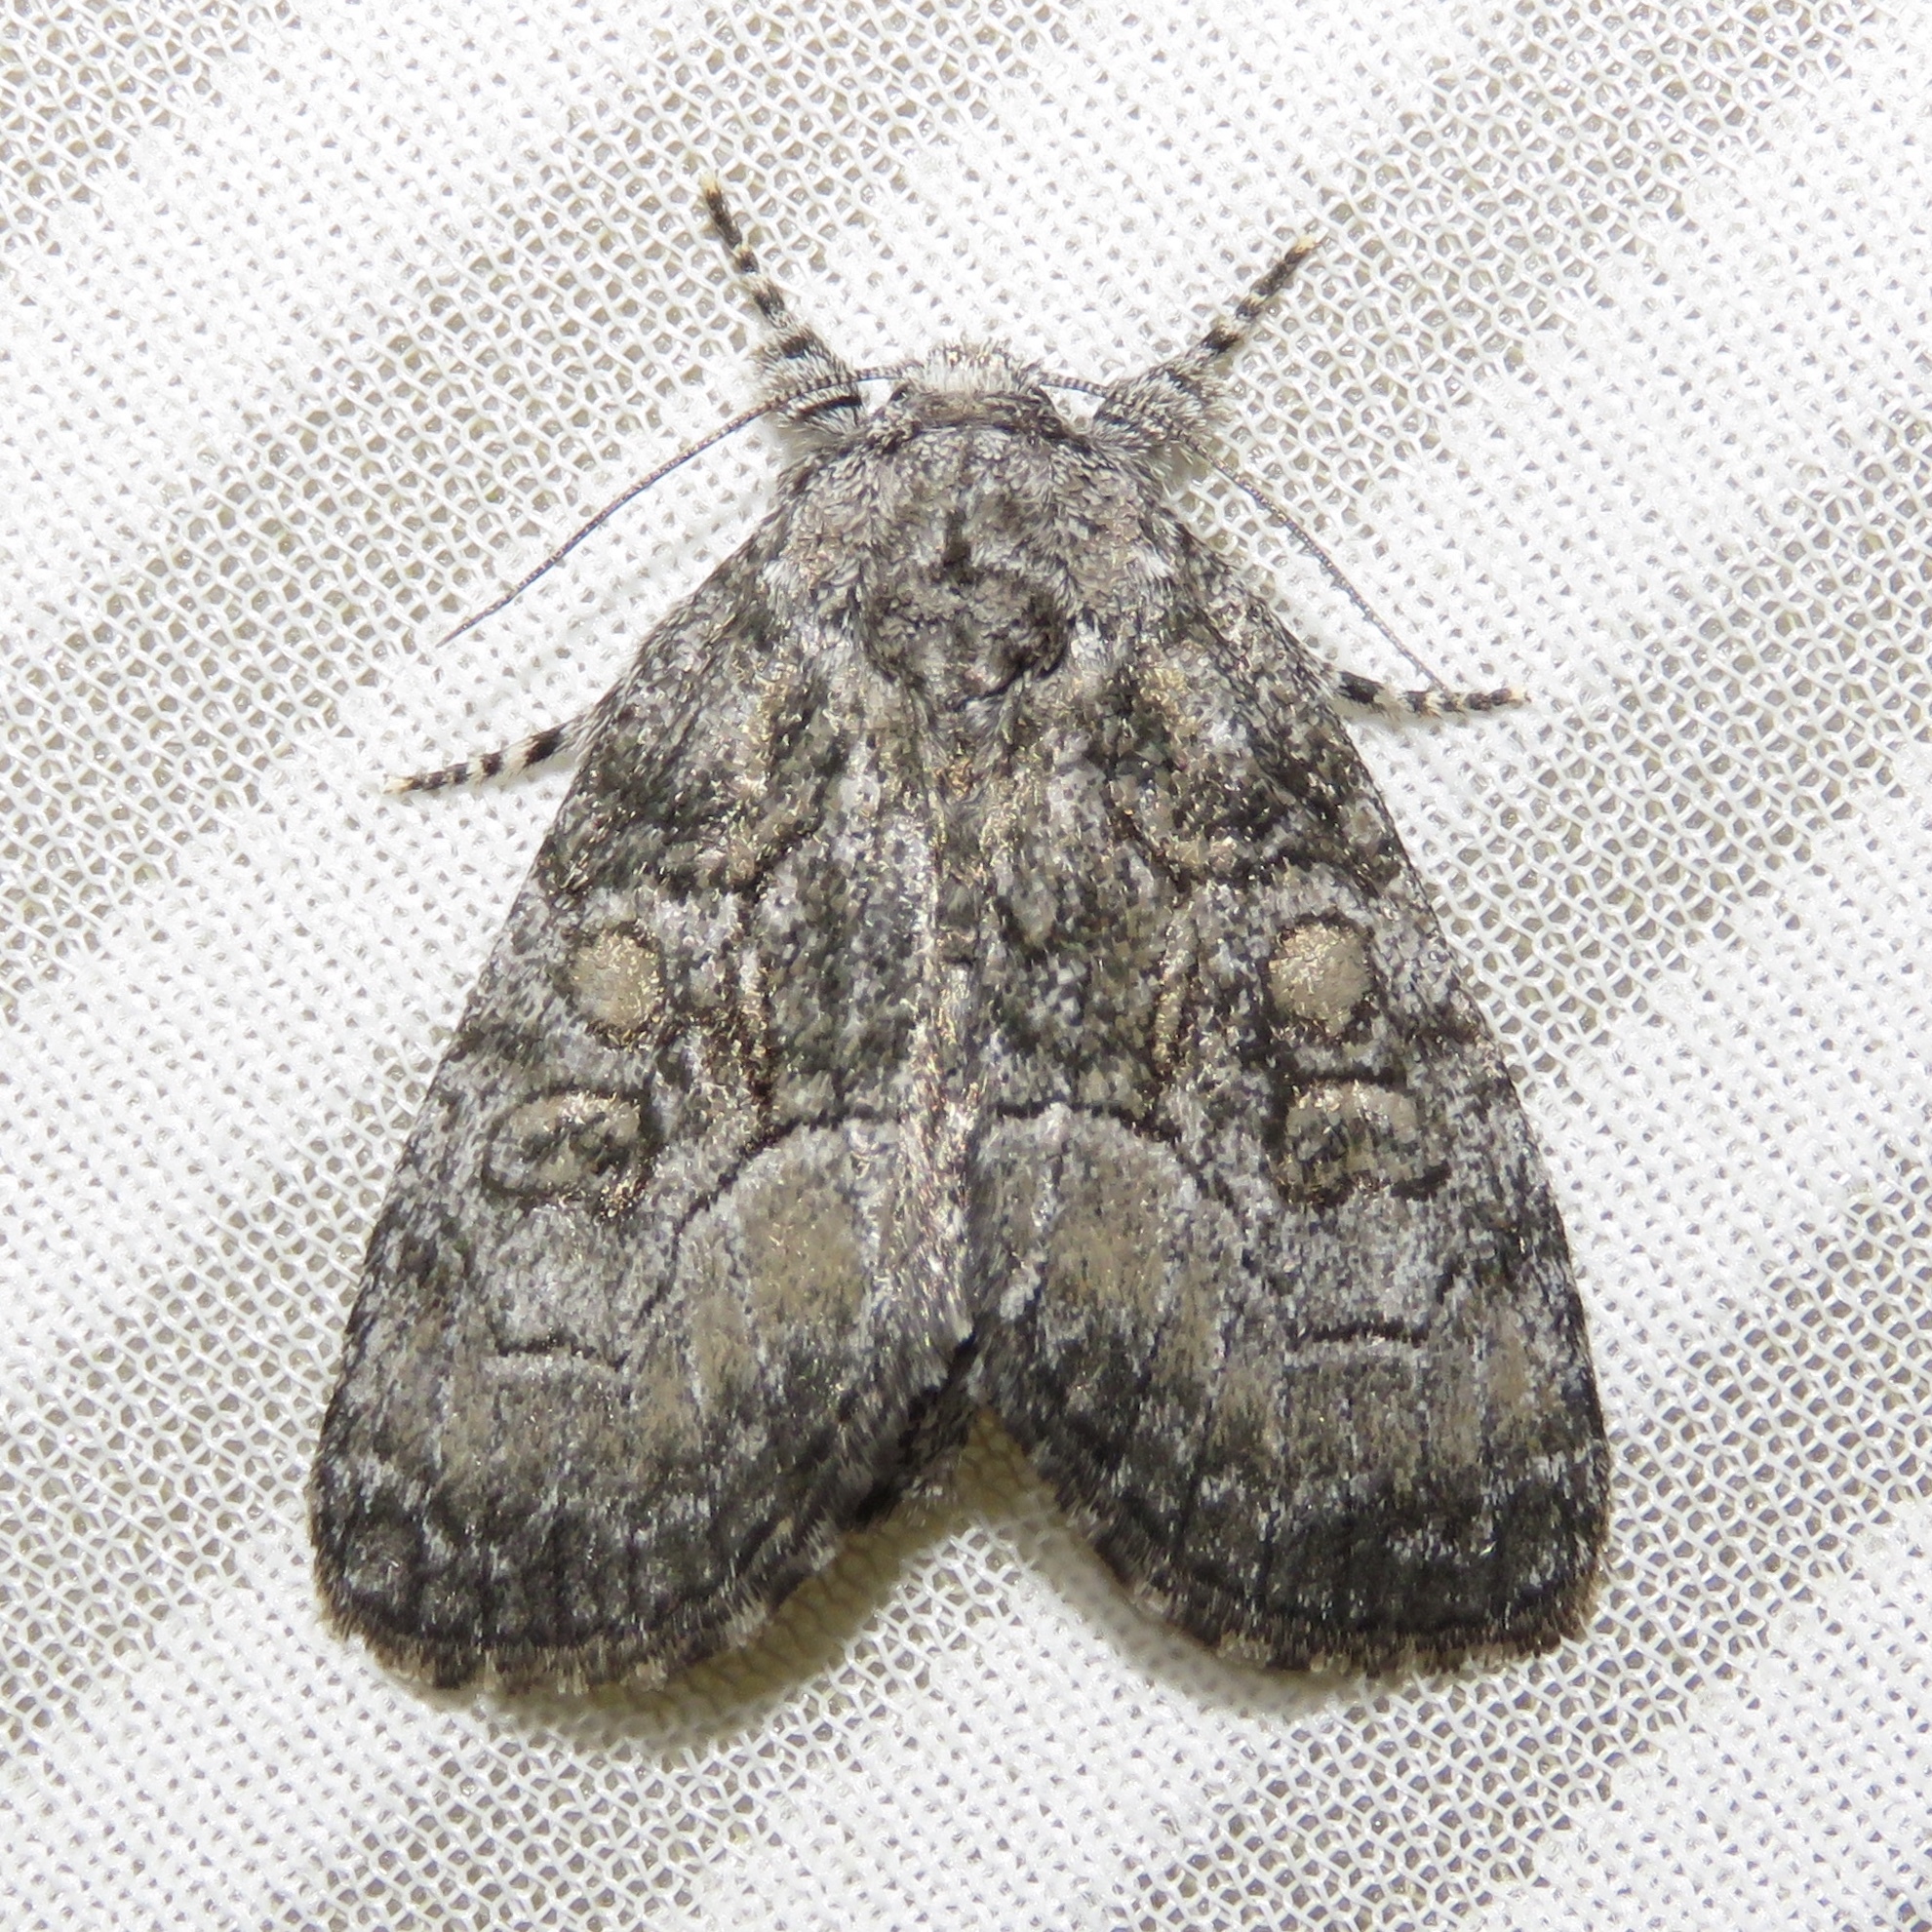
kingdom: Animalia
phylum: Arthropoda
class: Insecta
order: Lepidoptera
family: Noctuidae
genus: Raphia
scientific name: Raphia frater
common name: Brother
